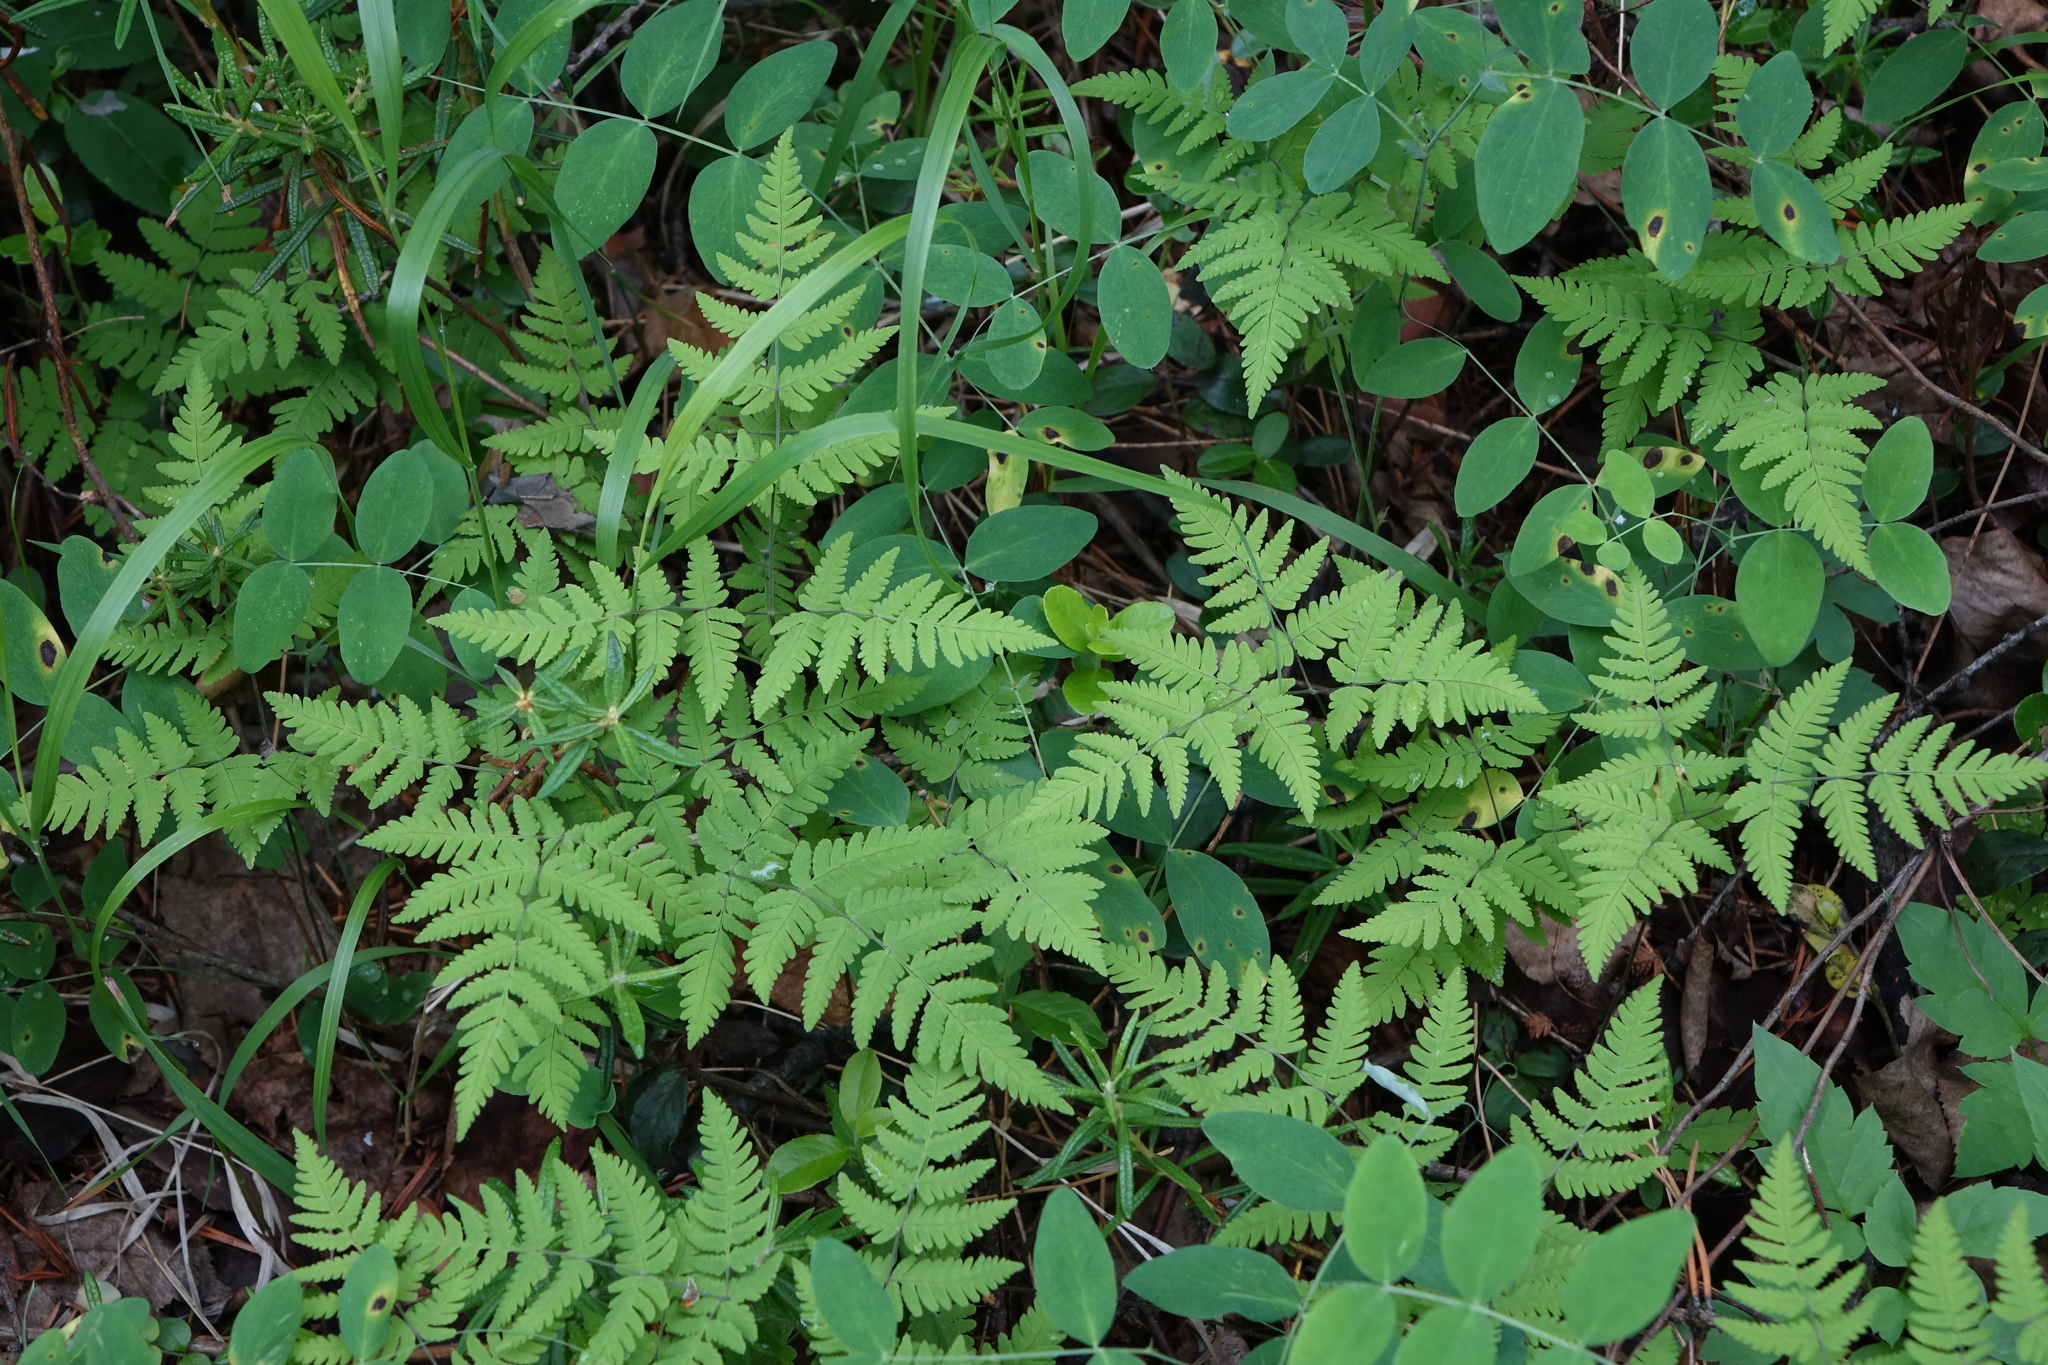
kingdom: Plantae
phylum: Tracheophyta
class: Polypodiopsida
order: Polypodiales
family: Cystopteridaceae
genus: Gymnocarpium
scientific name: Gymnocarpium continentale
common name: Asian oak fern
